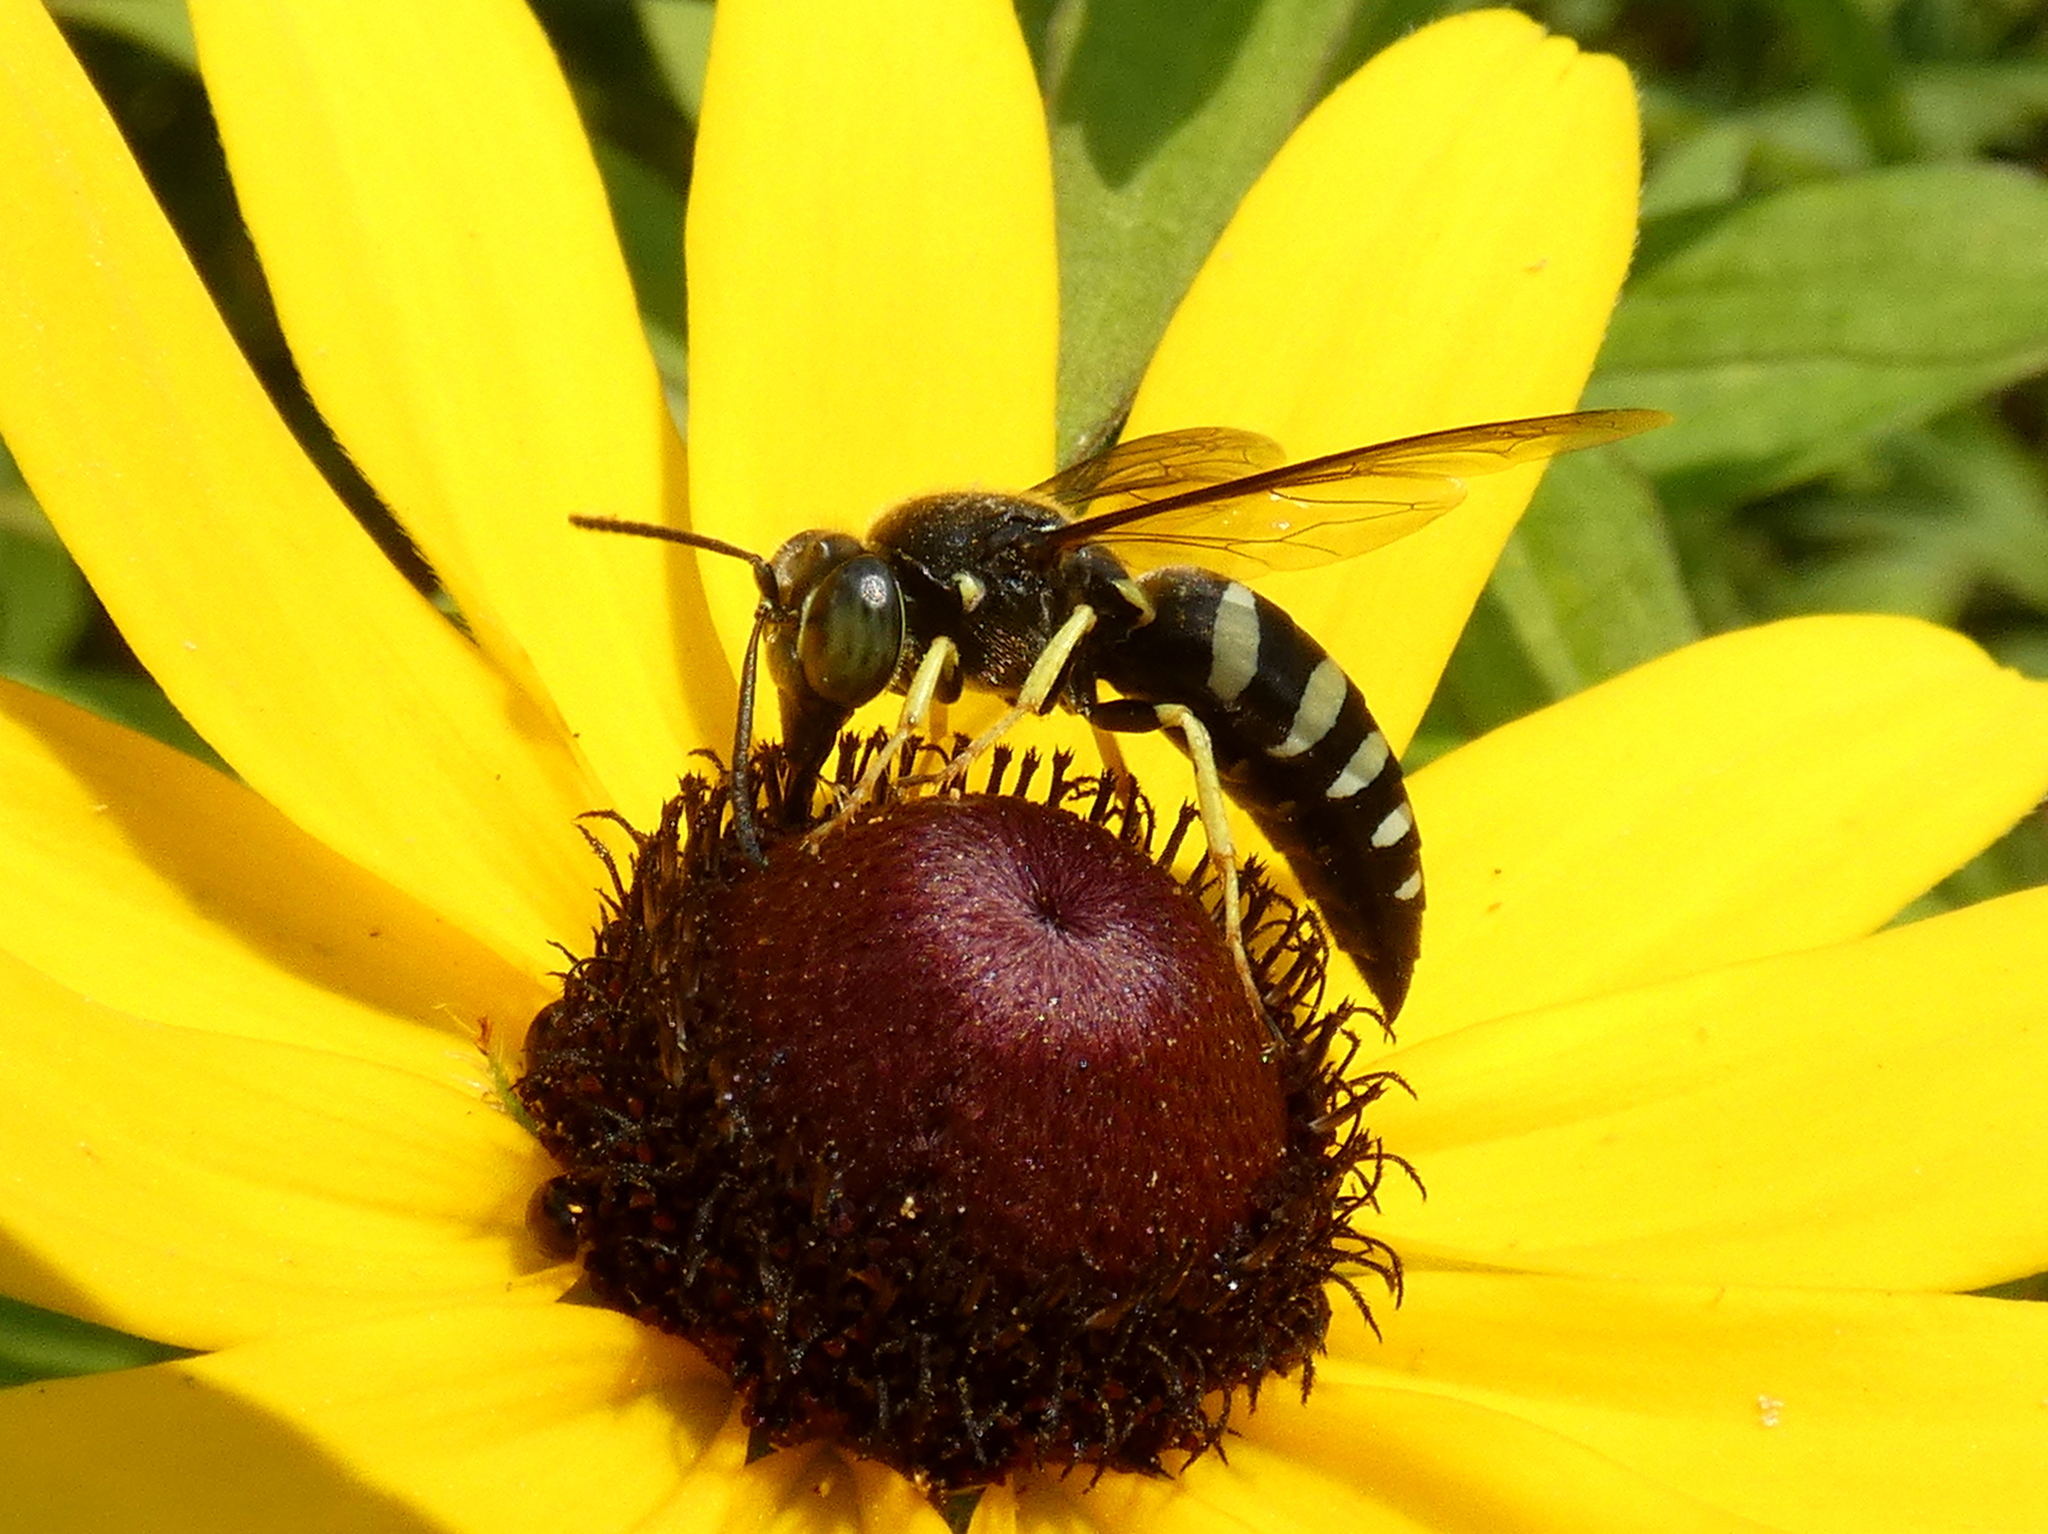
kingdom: Animalia
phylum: Arthropoda
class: Insecta
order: Hymenoptera
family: Crabronidae
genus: Bicyrtes
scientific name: Bicyrtes quadrifasciatus
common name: Four-banded stink bug hunter wasp
